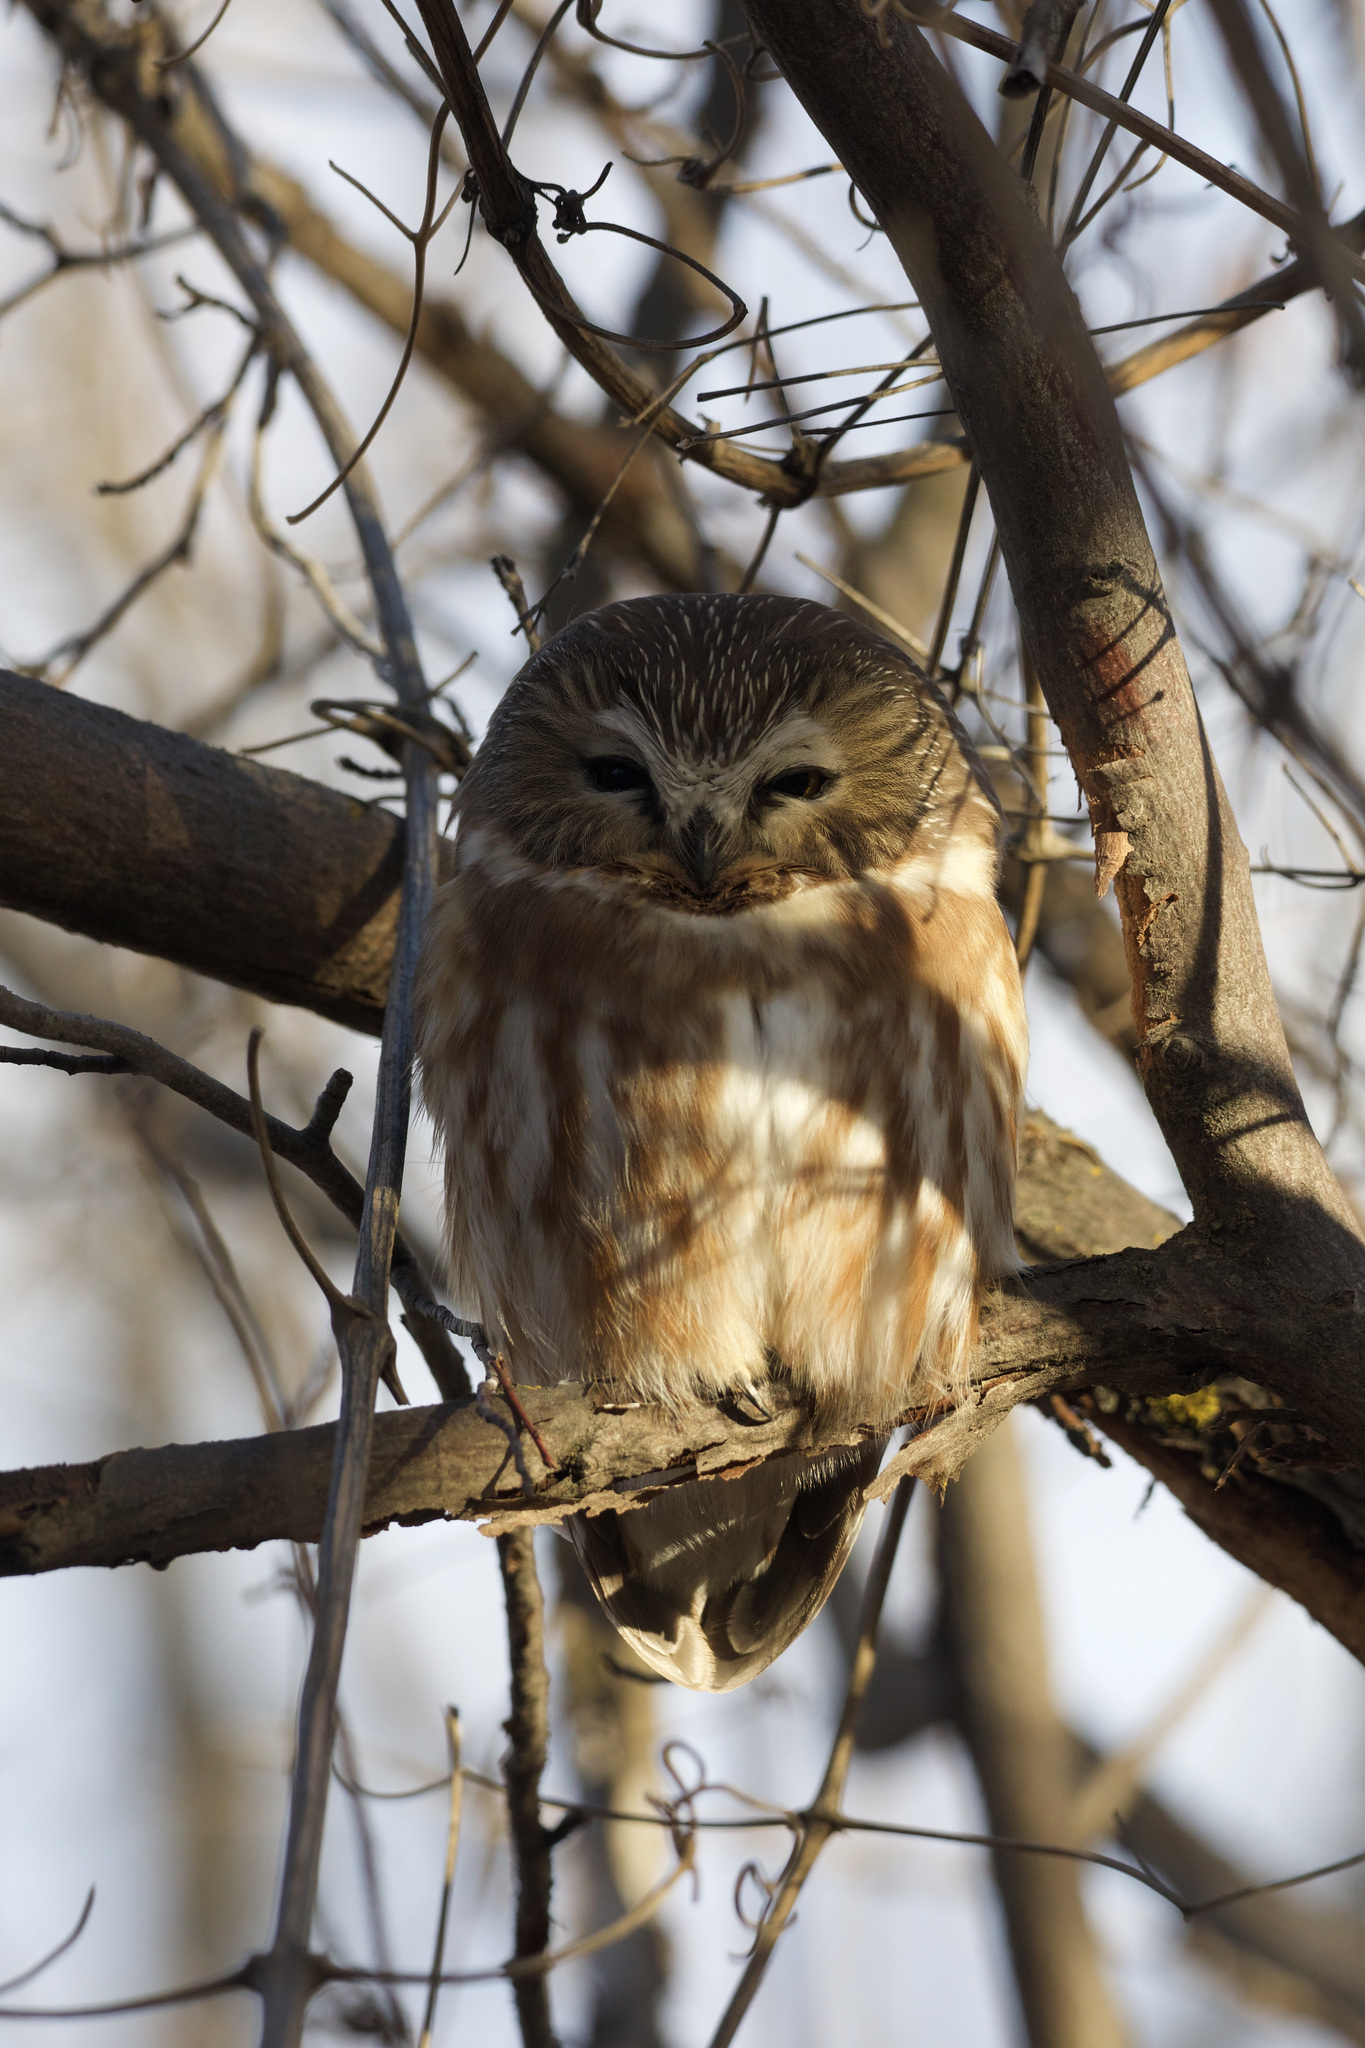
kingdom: Animalia
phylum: Chordata
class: Aves
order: Strigiformes
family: Strigidae
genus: Aegolius
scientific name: Aegolius acadicus
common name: Northern saw-whet owl
